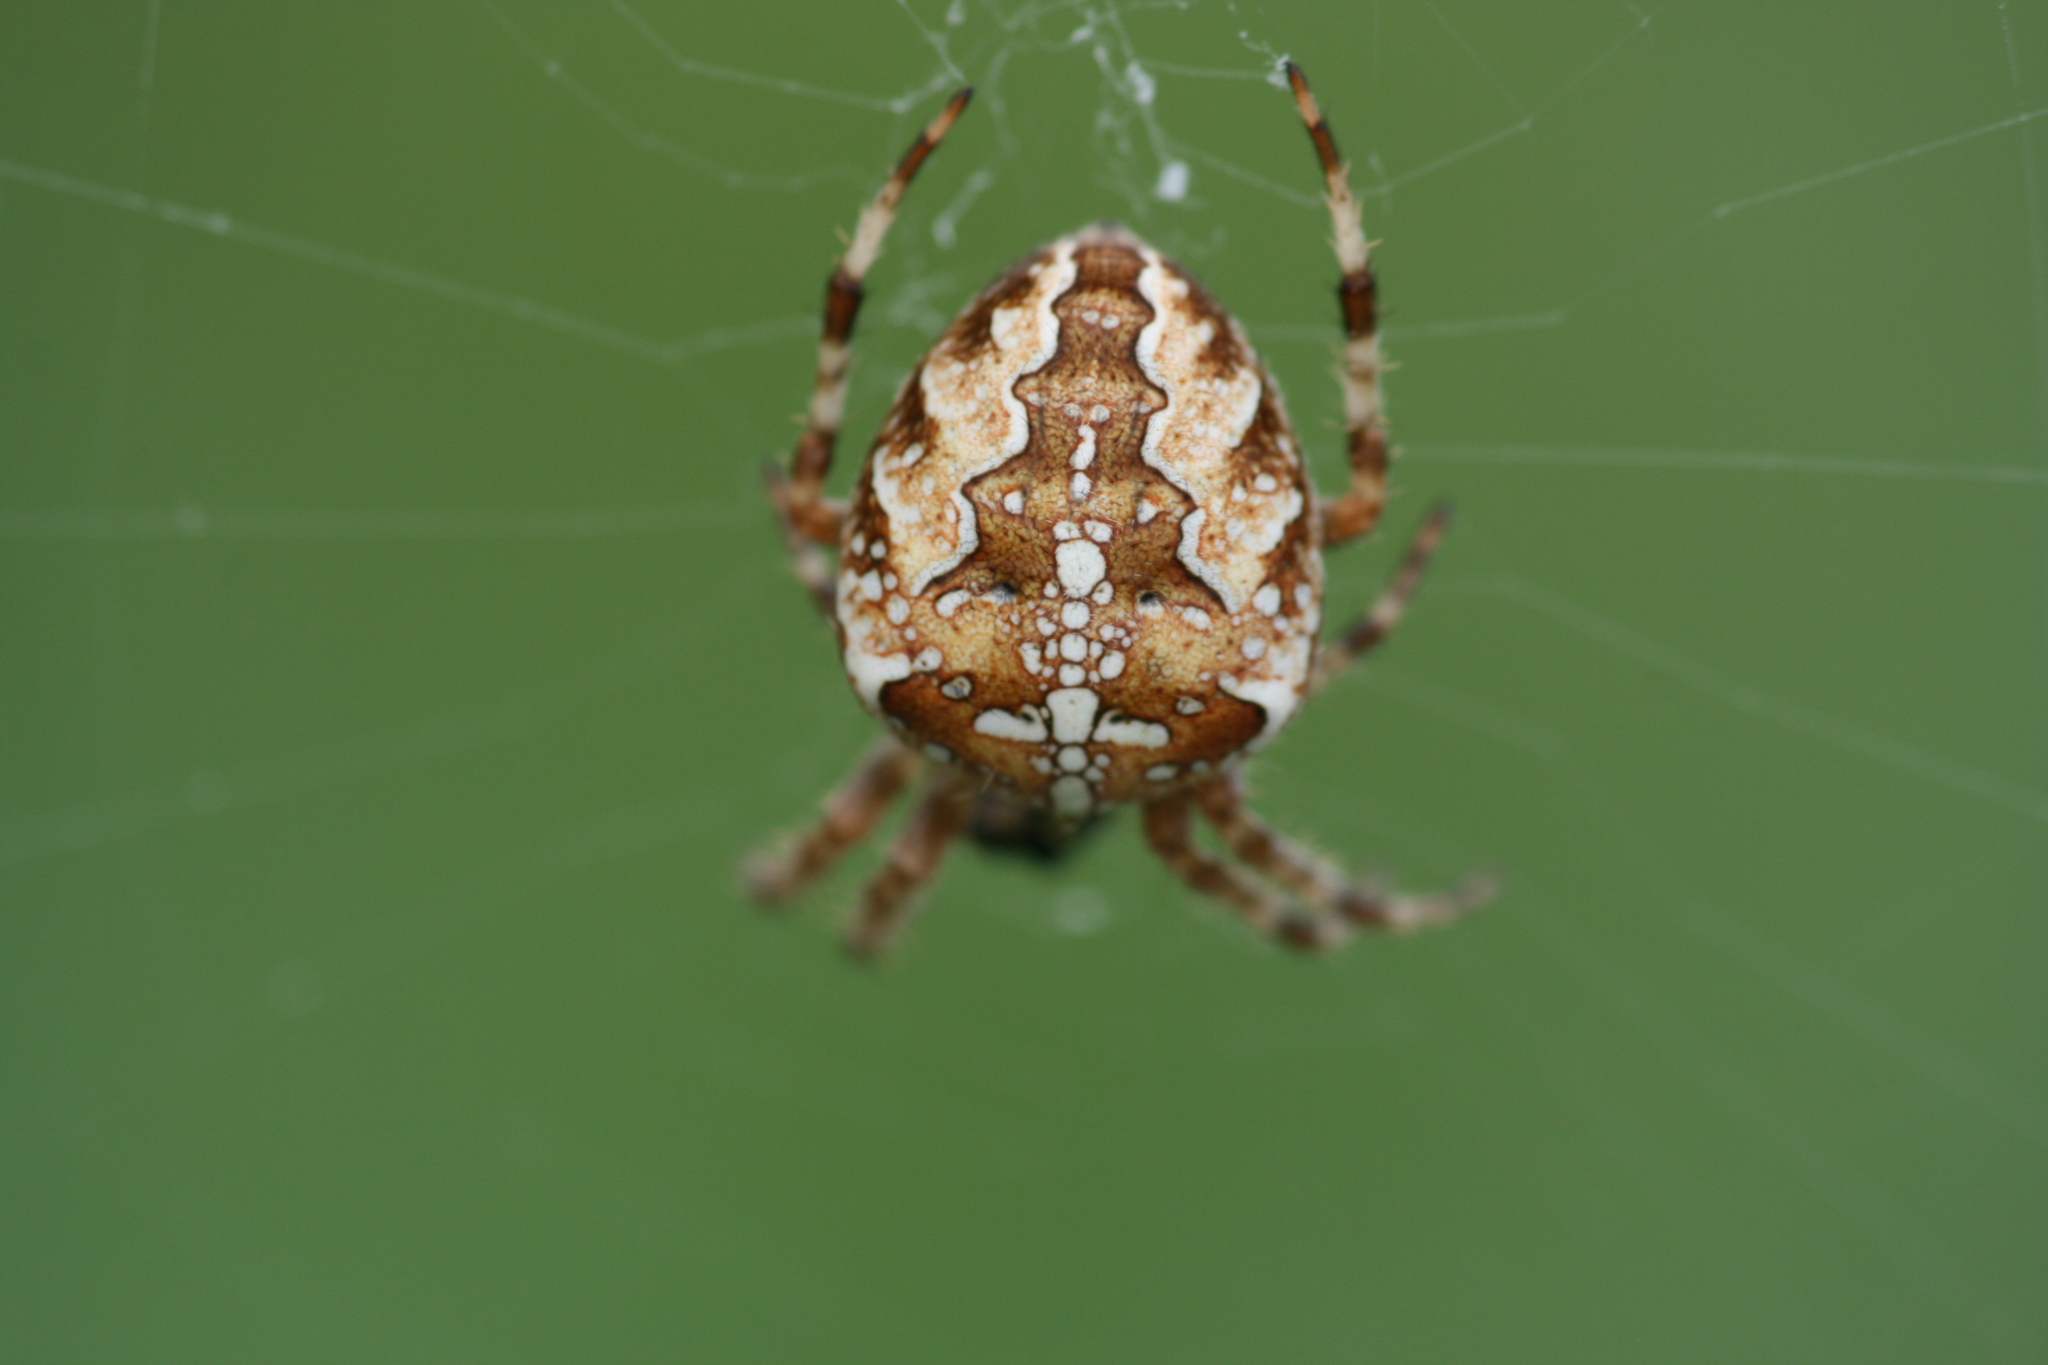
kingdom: Animalia
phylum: Arthropoda
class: Arachnida
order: Araneae
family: Araneidae
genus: Araneus
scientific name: Araneus diadematus
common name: Cross orbweaver
